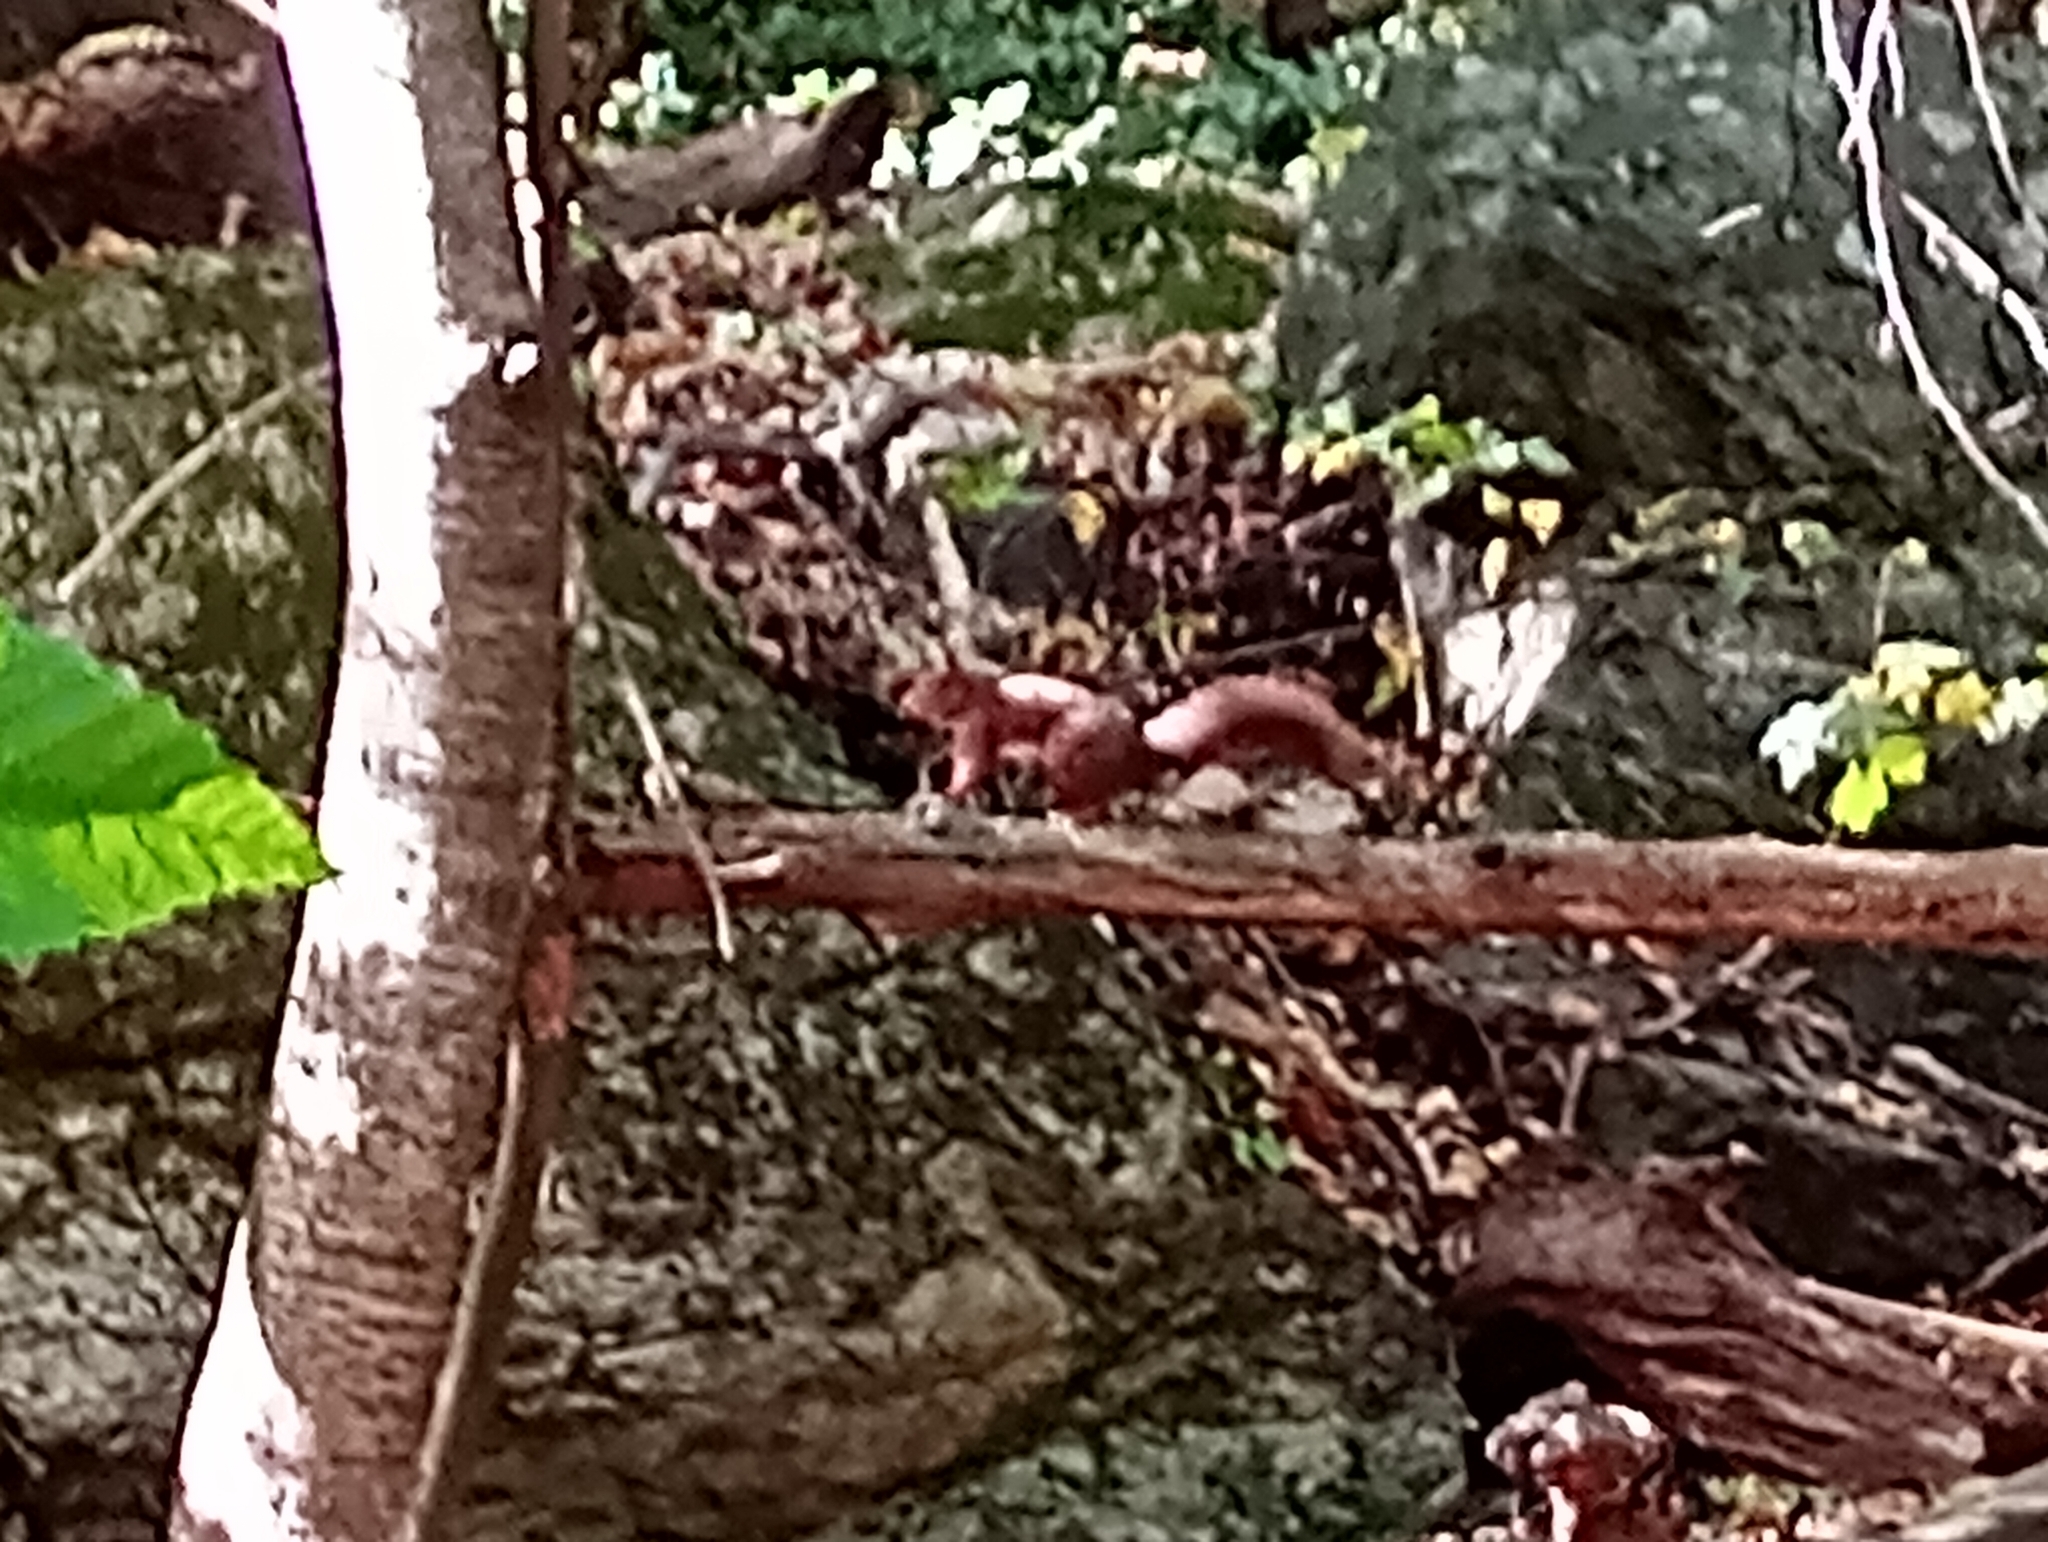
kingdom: Animalia
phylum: Chordata
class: Mammalia
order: Rodentia
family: Sciuridae
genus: Sciurus
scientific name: Sciurus vulgaris
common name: Eurasian red squirrel
